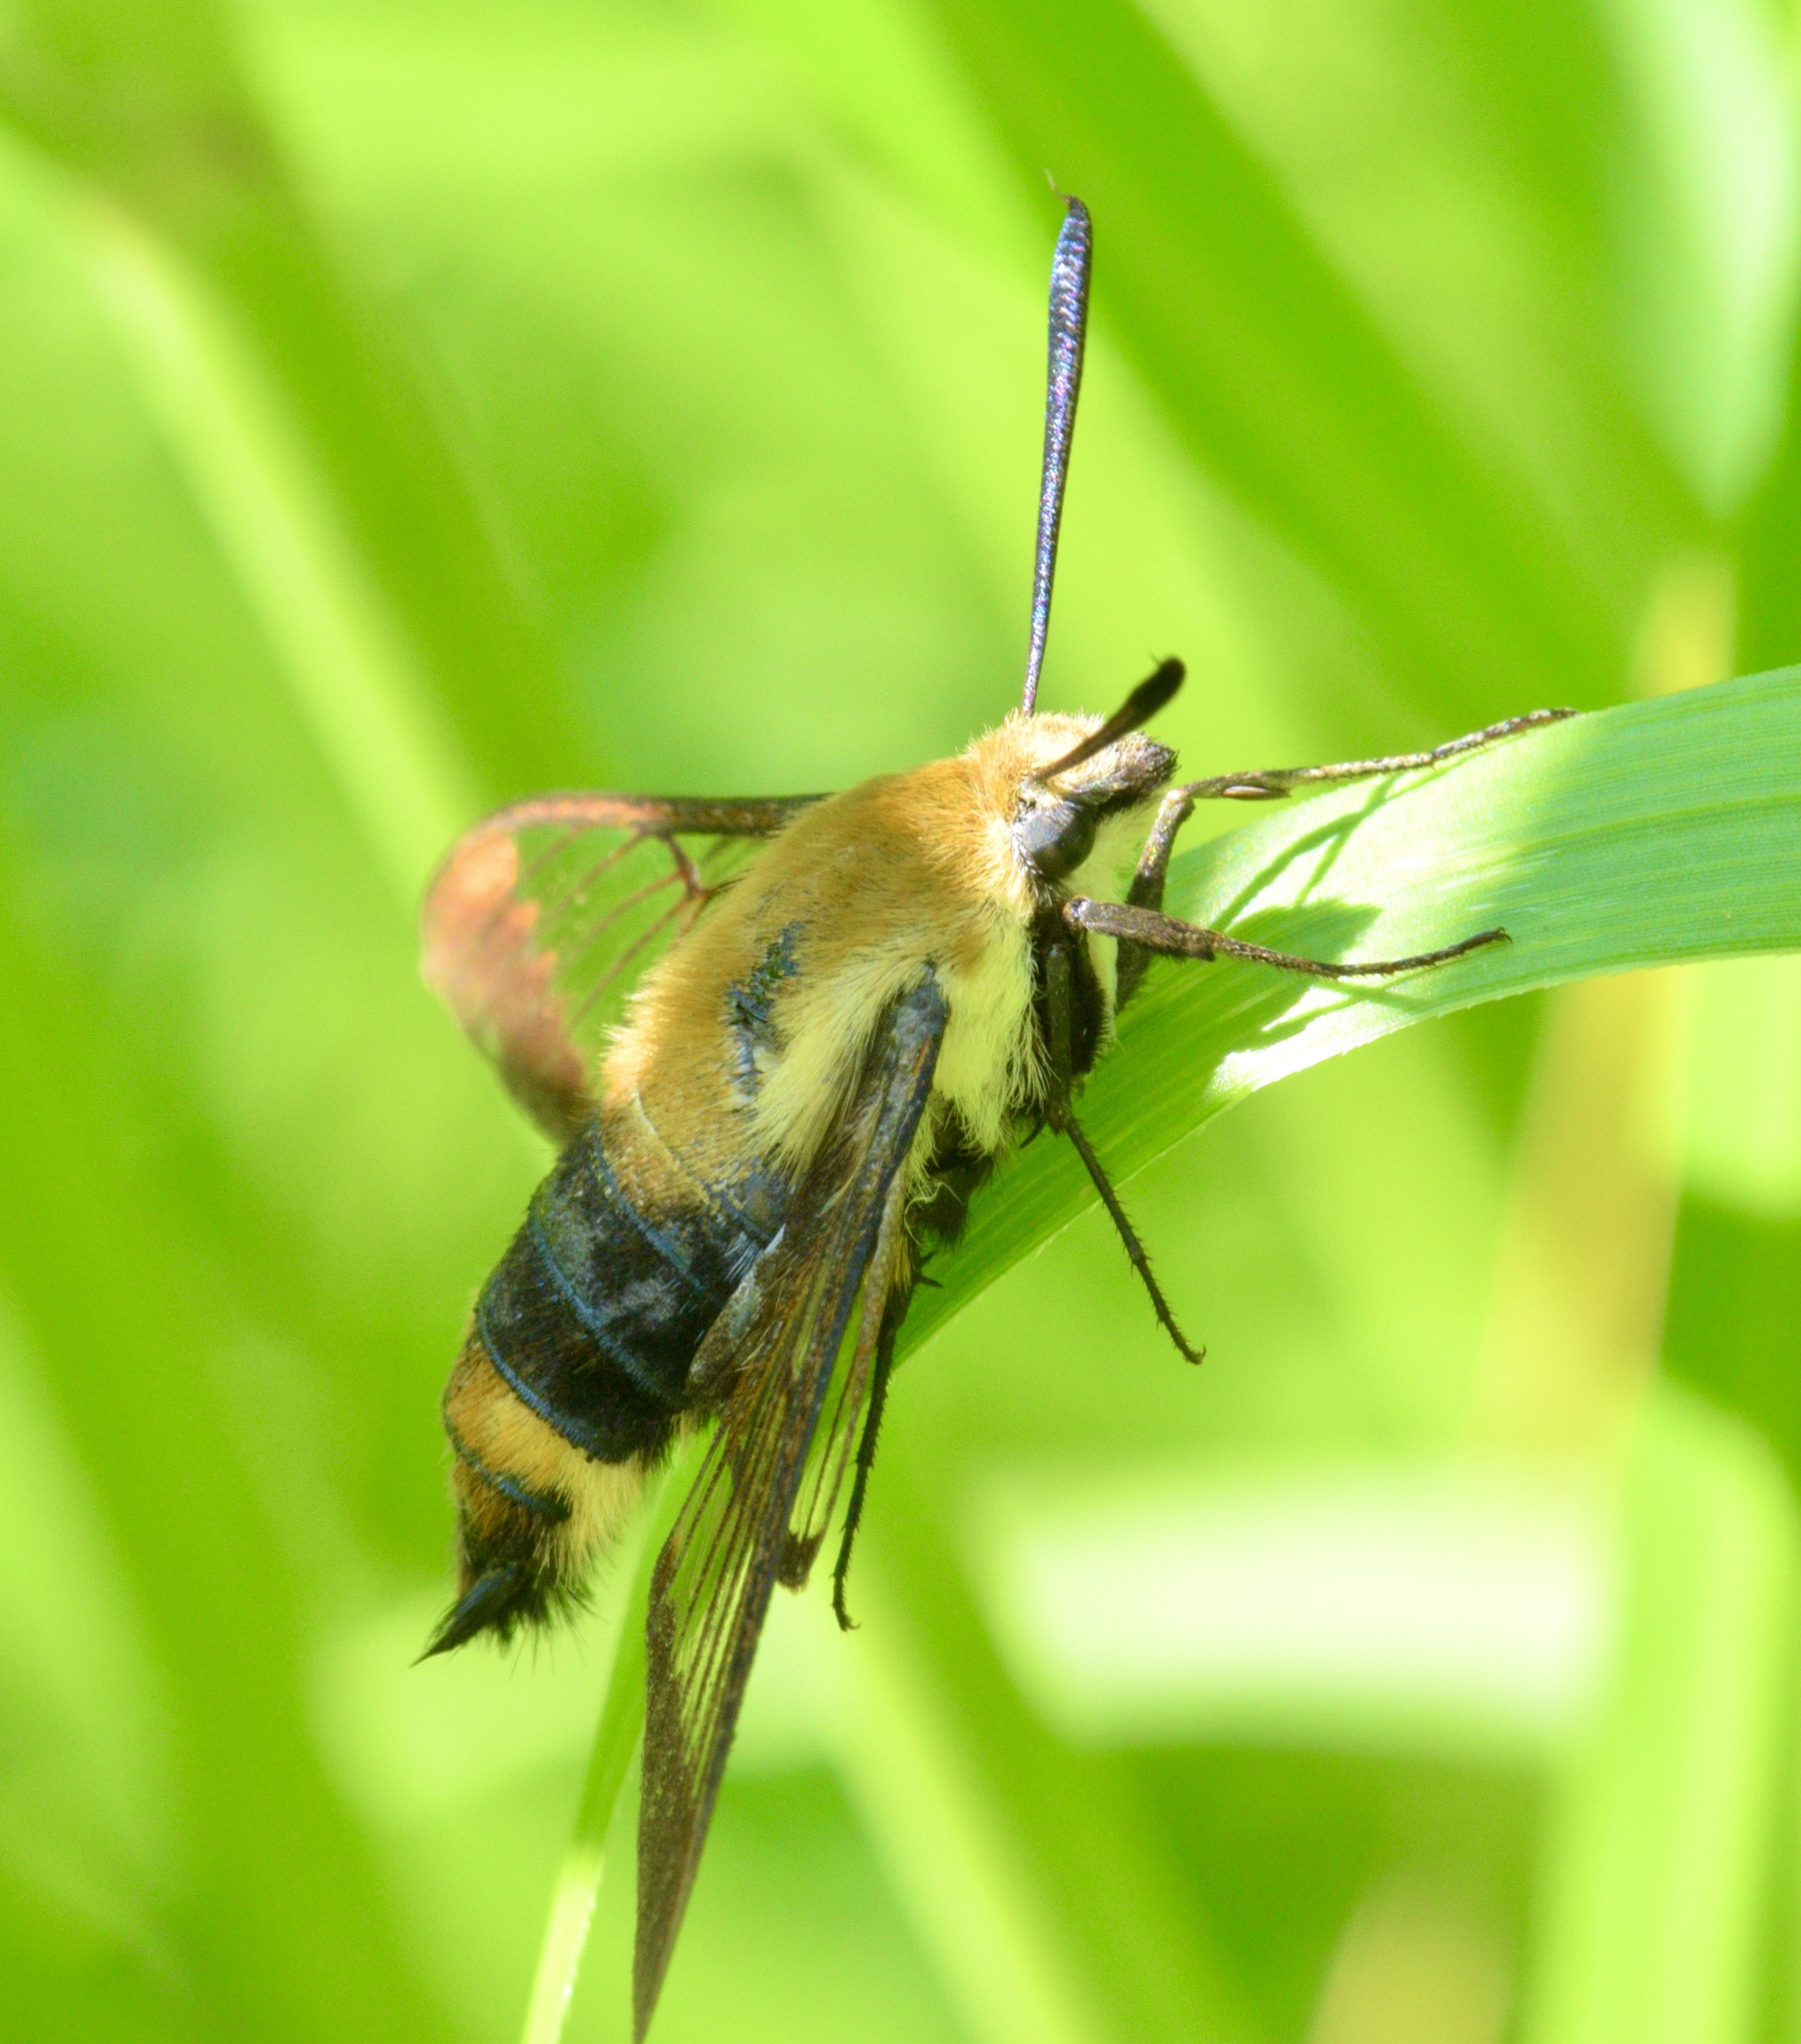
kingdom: Animalia
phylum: Arthropoda
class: Insecta
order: Lepidoptera
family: Sphingidae
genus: Hemaris
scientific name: Hemaris diffinis
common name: Bumblebee moth
